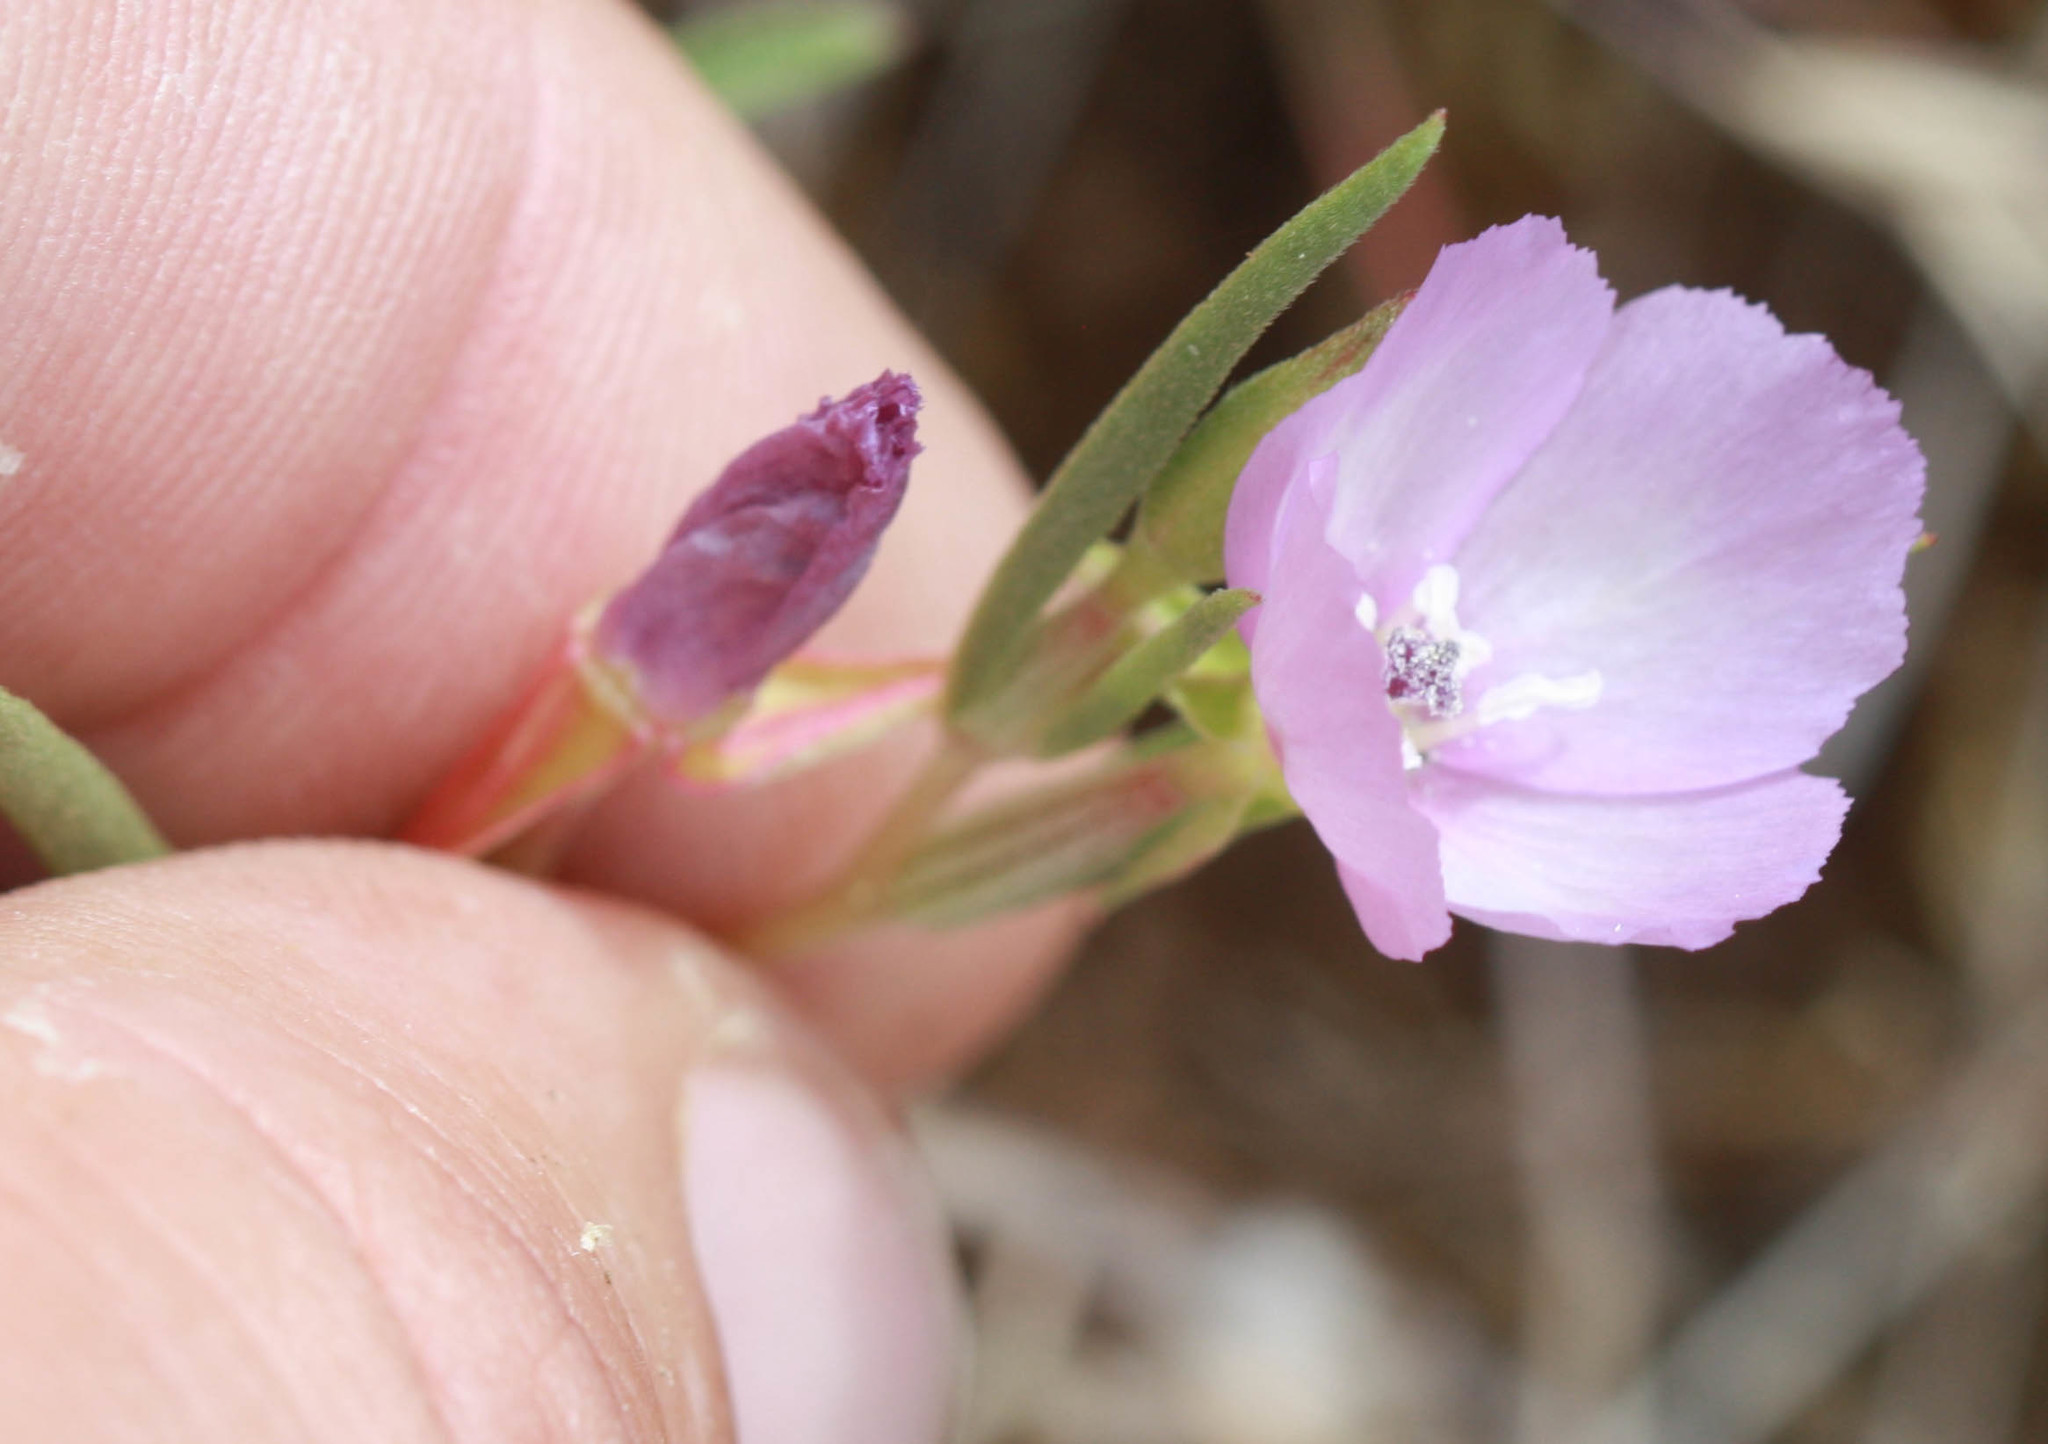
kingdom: Plantae
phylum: Tracheophyta
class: Magnoliopsida
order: Malvales
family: Malvaceae
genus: Sidalcea
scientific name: Sidalcea diploscypha
